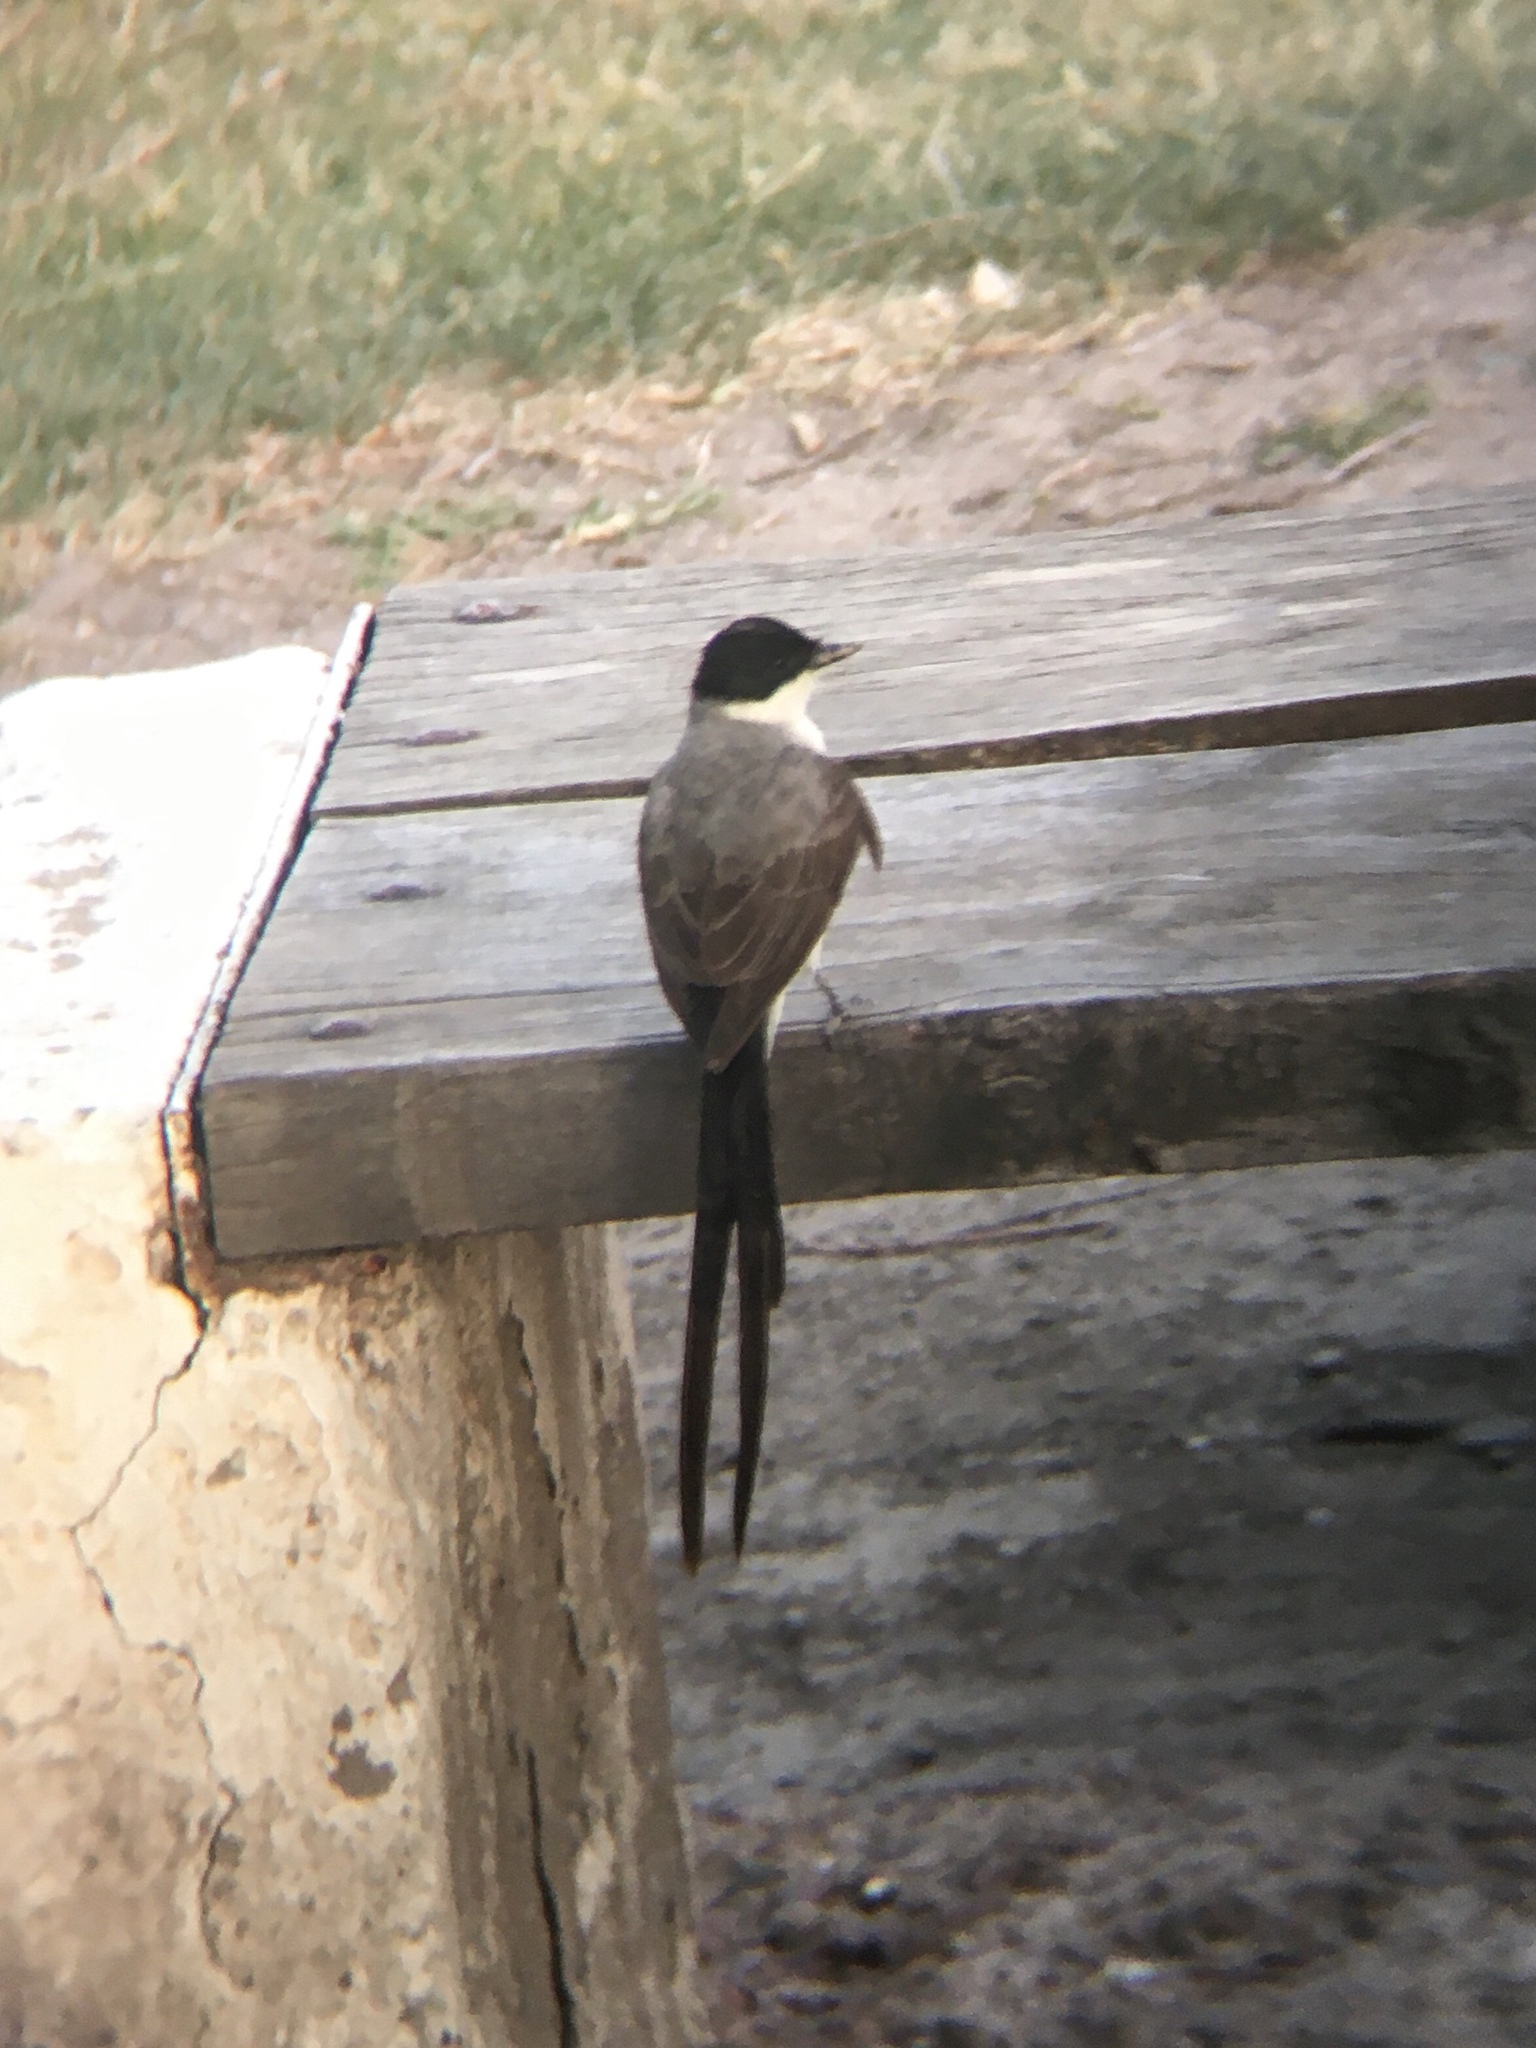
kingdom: Animalia
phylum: Chordata
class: Aves
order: Passeriformes
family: Tyrannidae
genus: Tyrannus
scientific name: Tyrannus savana
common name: Fork-tailed flycatcher
